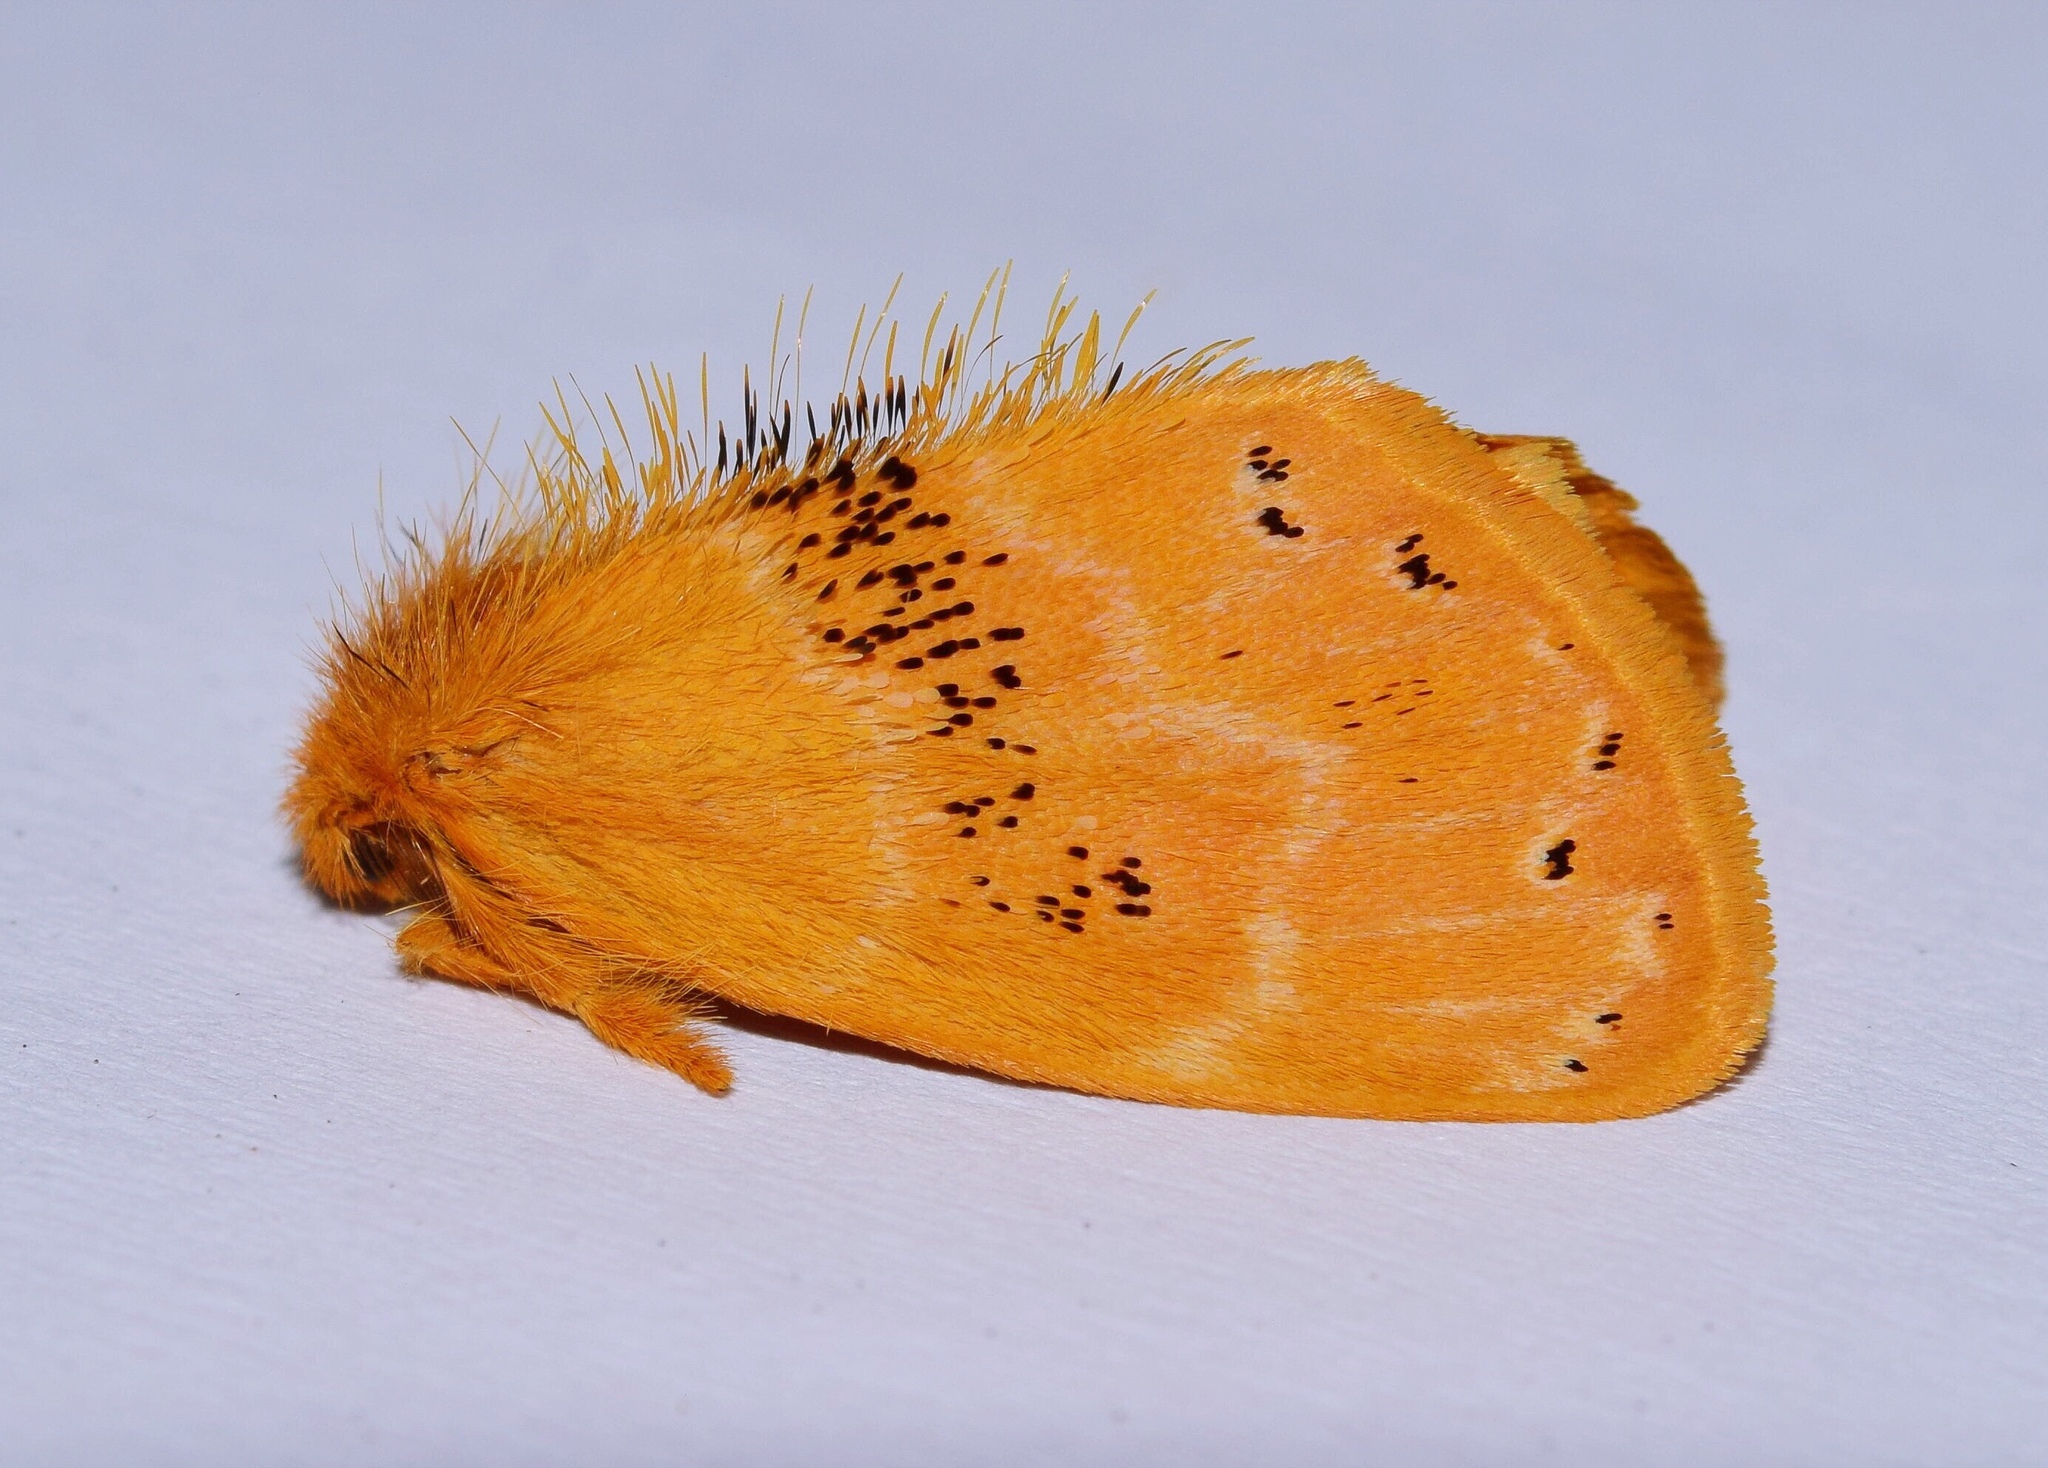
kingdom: Animalia
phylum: Arthropoda
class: Insecta
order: Lepidoptera
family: Erebidae
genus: Euproctis
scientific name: Euproctis punctifera
